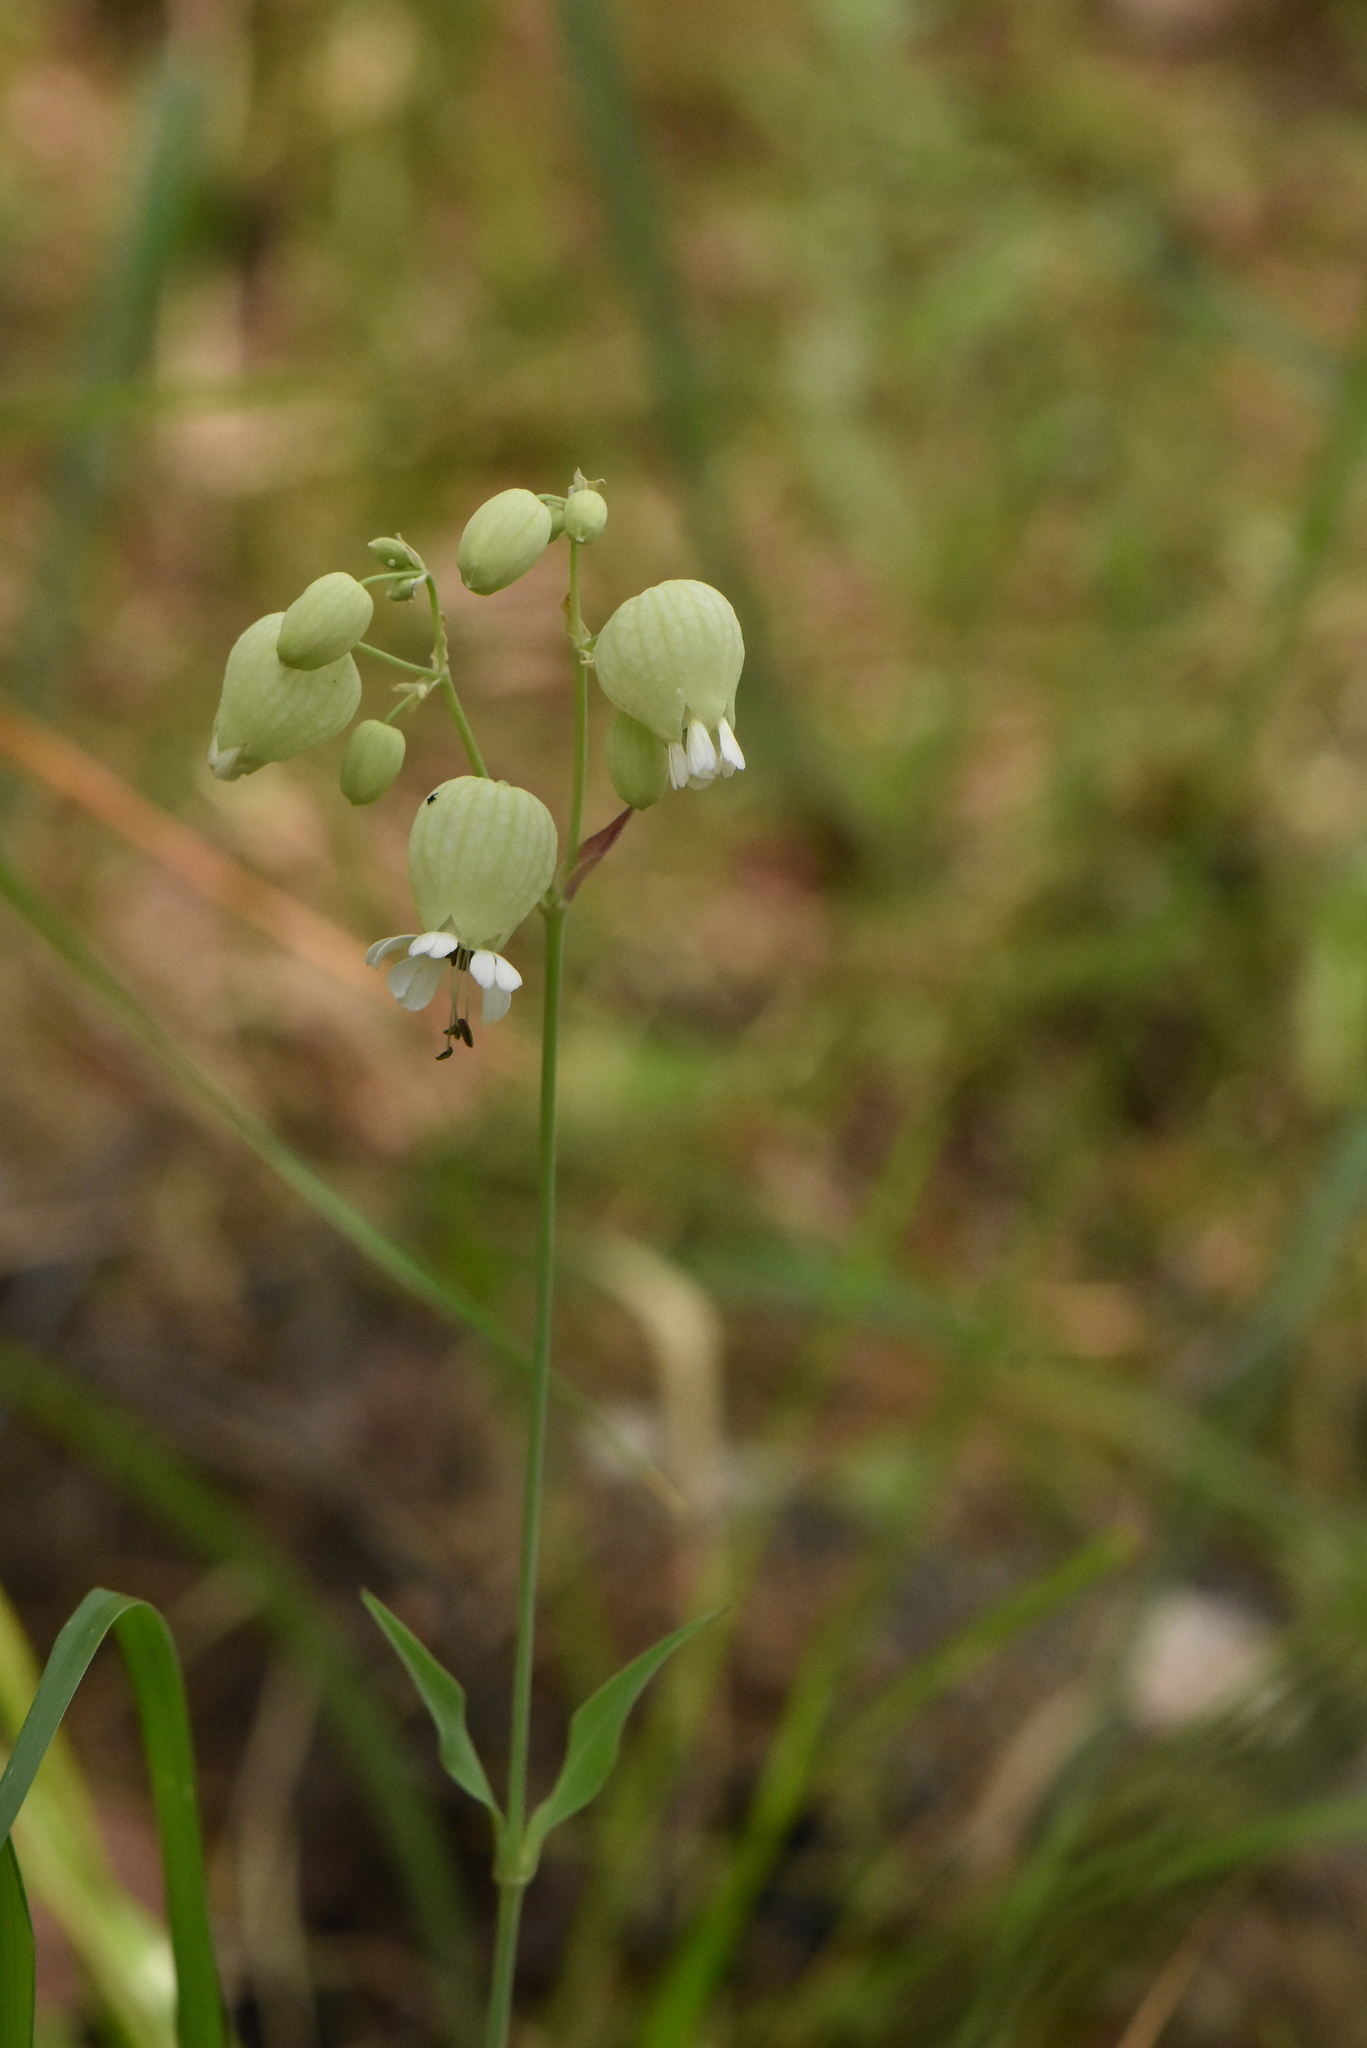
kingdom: Plantae
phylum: Tracheophyta
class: Magnoliopsida
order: Caryophyllales
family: Caryophyllaceae
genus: Silene
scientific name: Silene vulgaris
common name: Bladder campion
